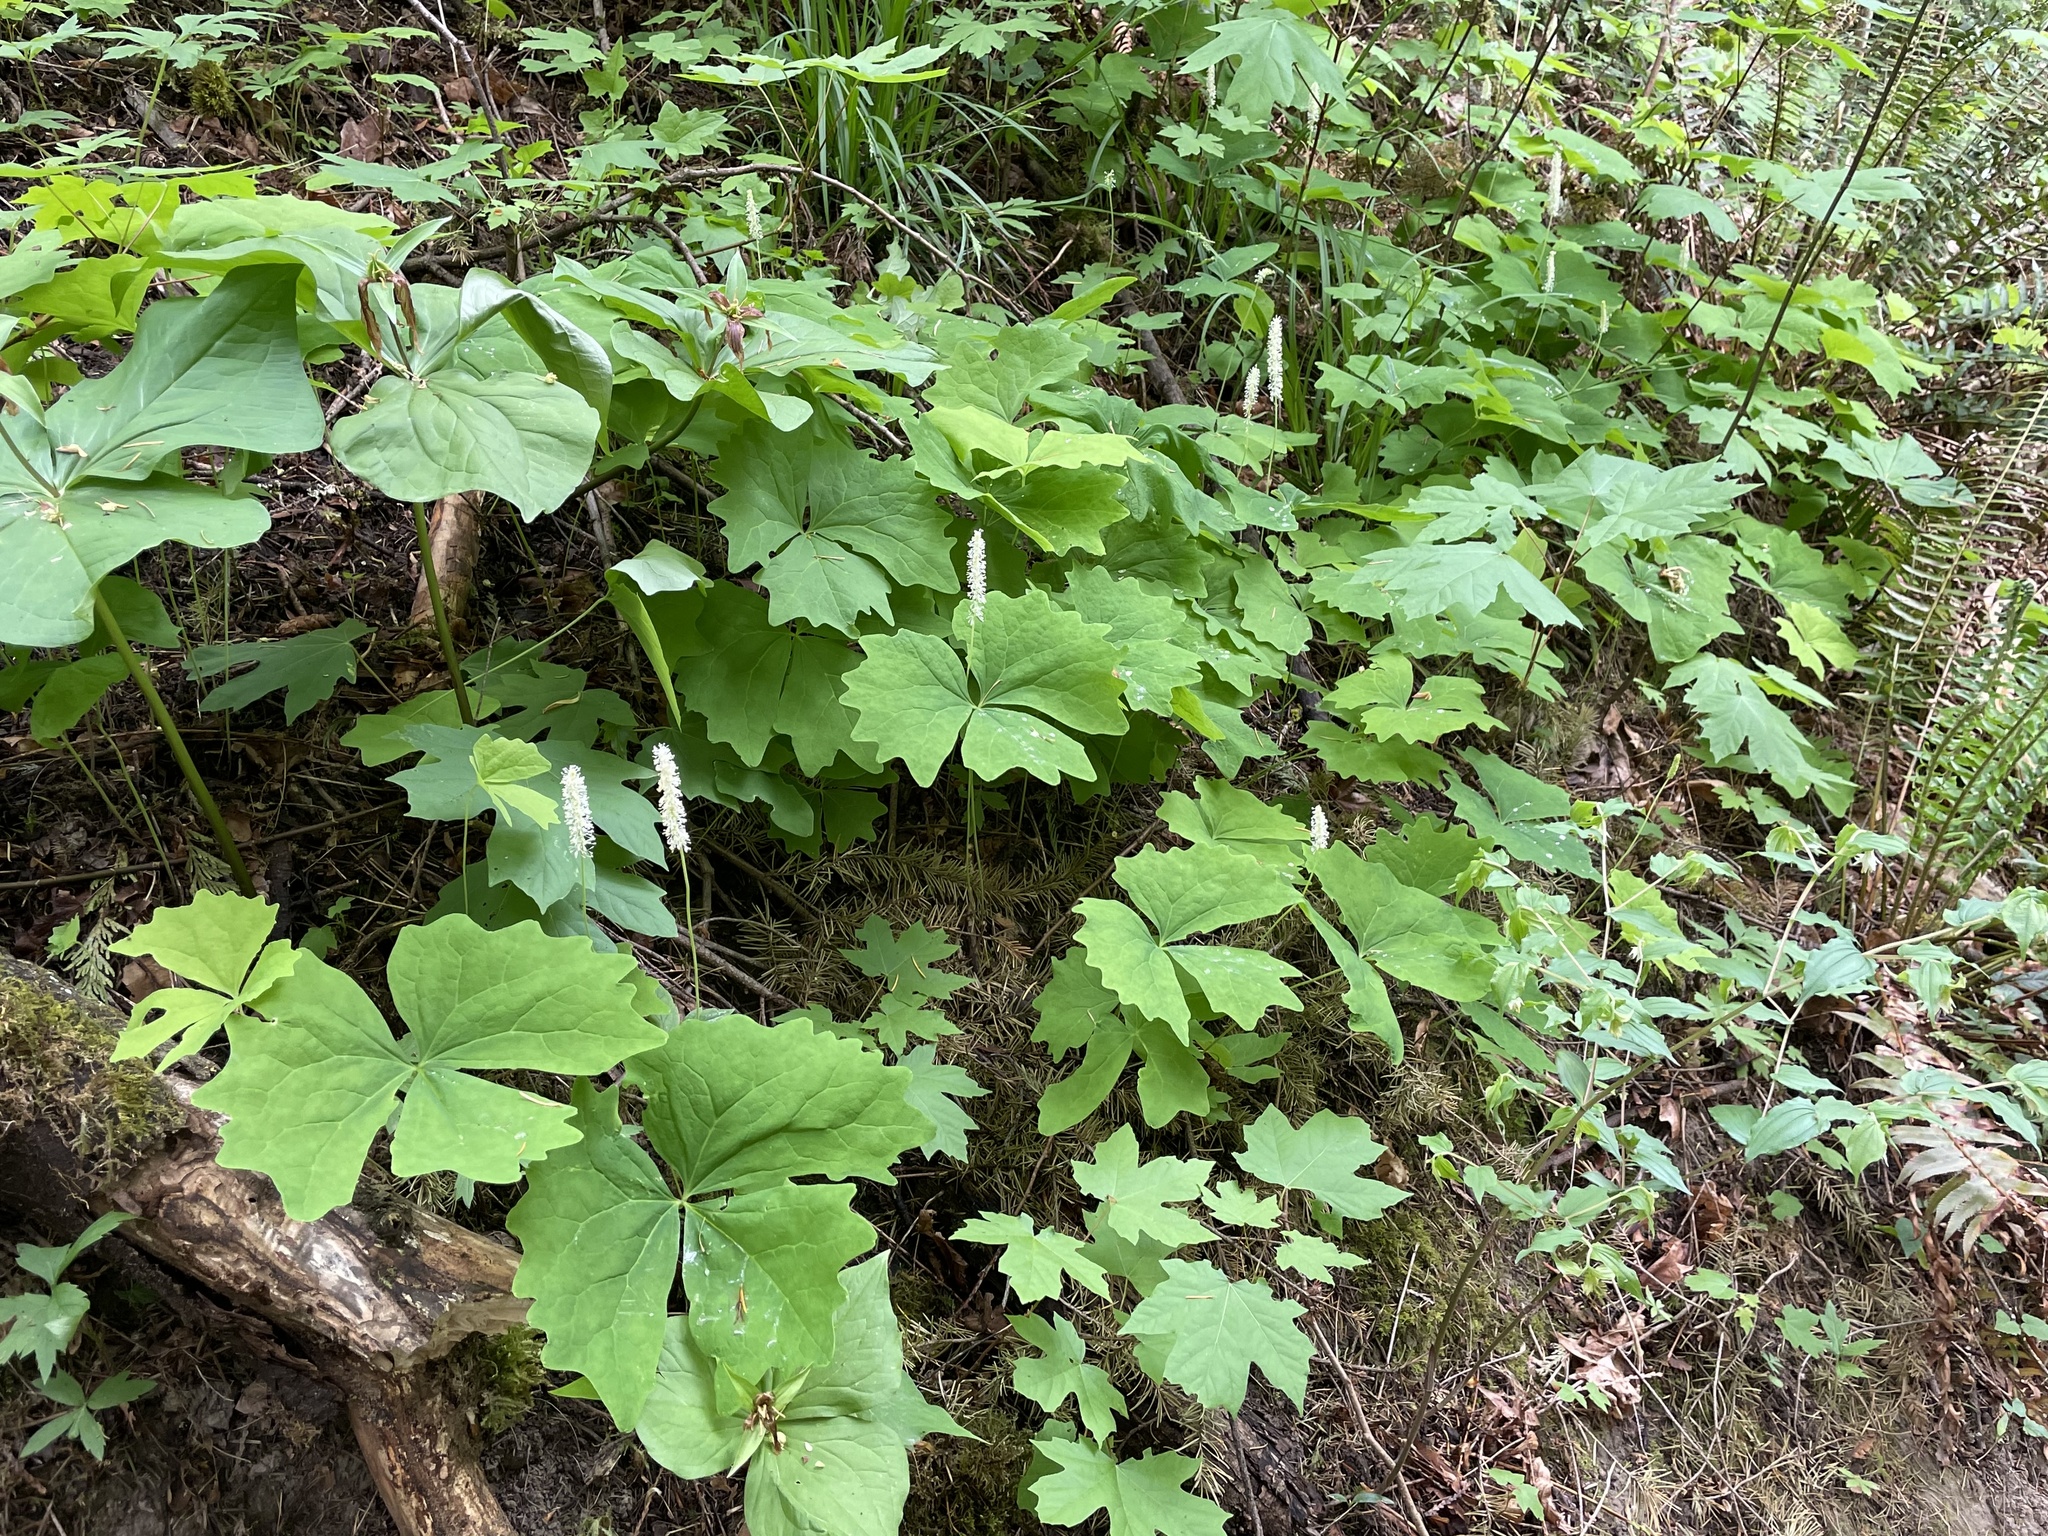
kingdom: Plantae
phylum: Tracheophyta
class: Magnoliopsida
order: Ranunculales
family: Berberidaceae
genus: Achlys
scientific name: Achlys triphylla
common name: Vanilla-leaf
